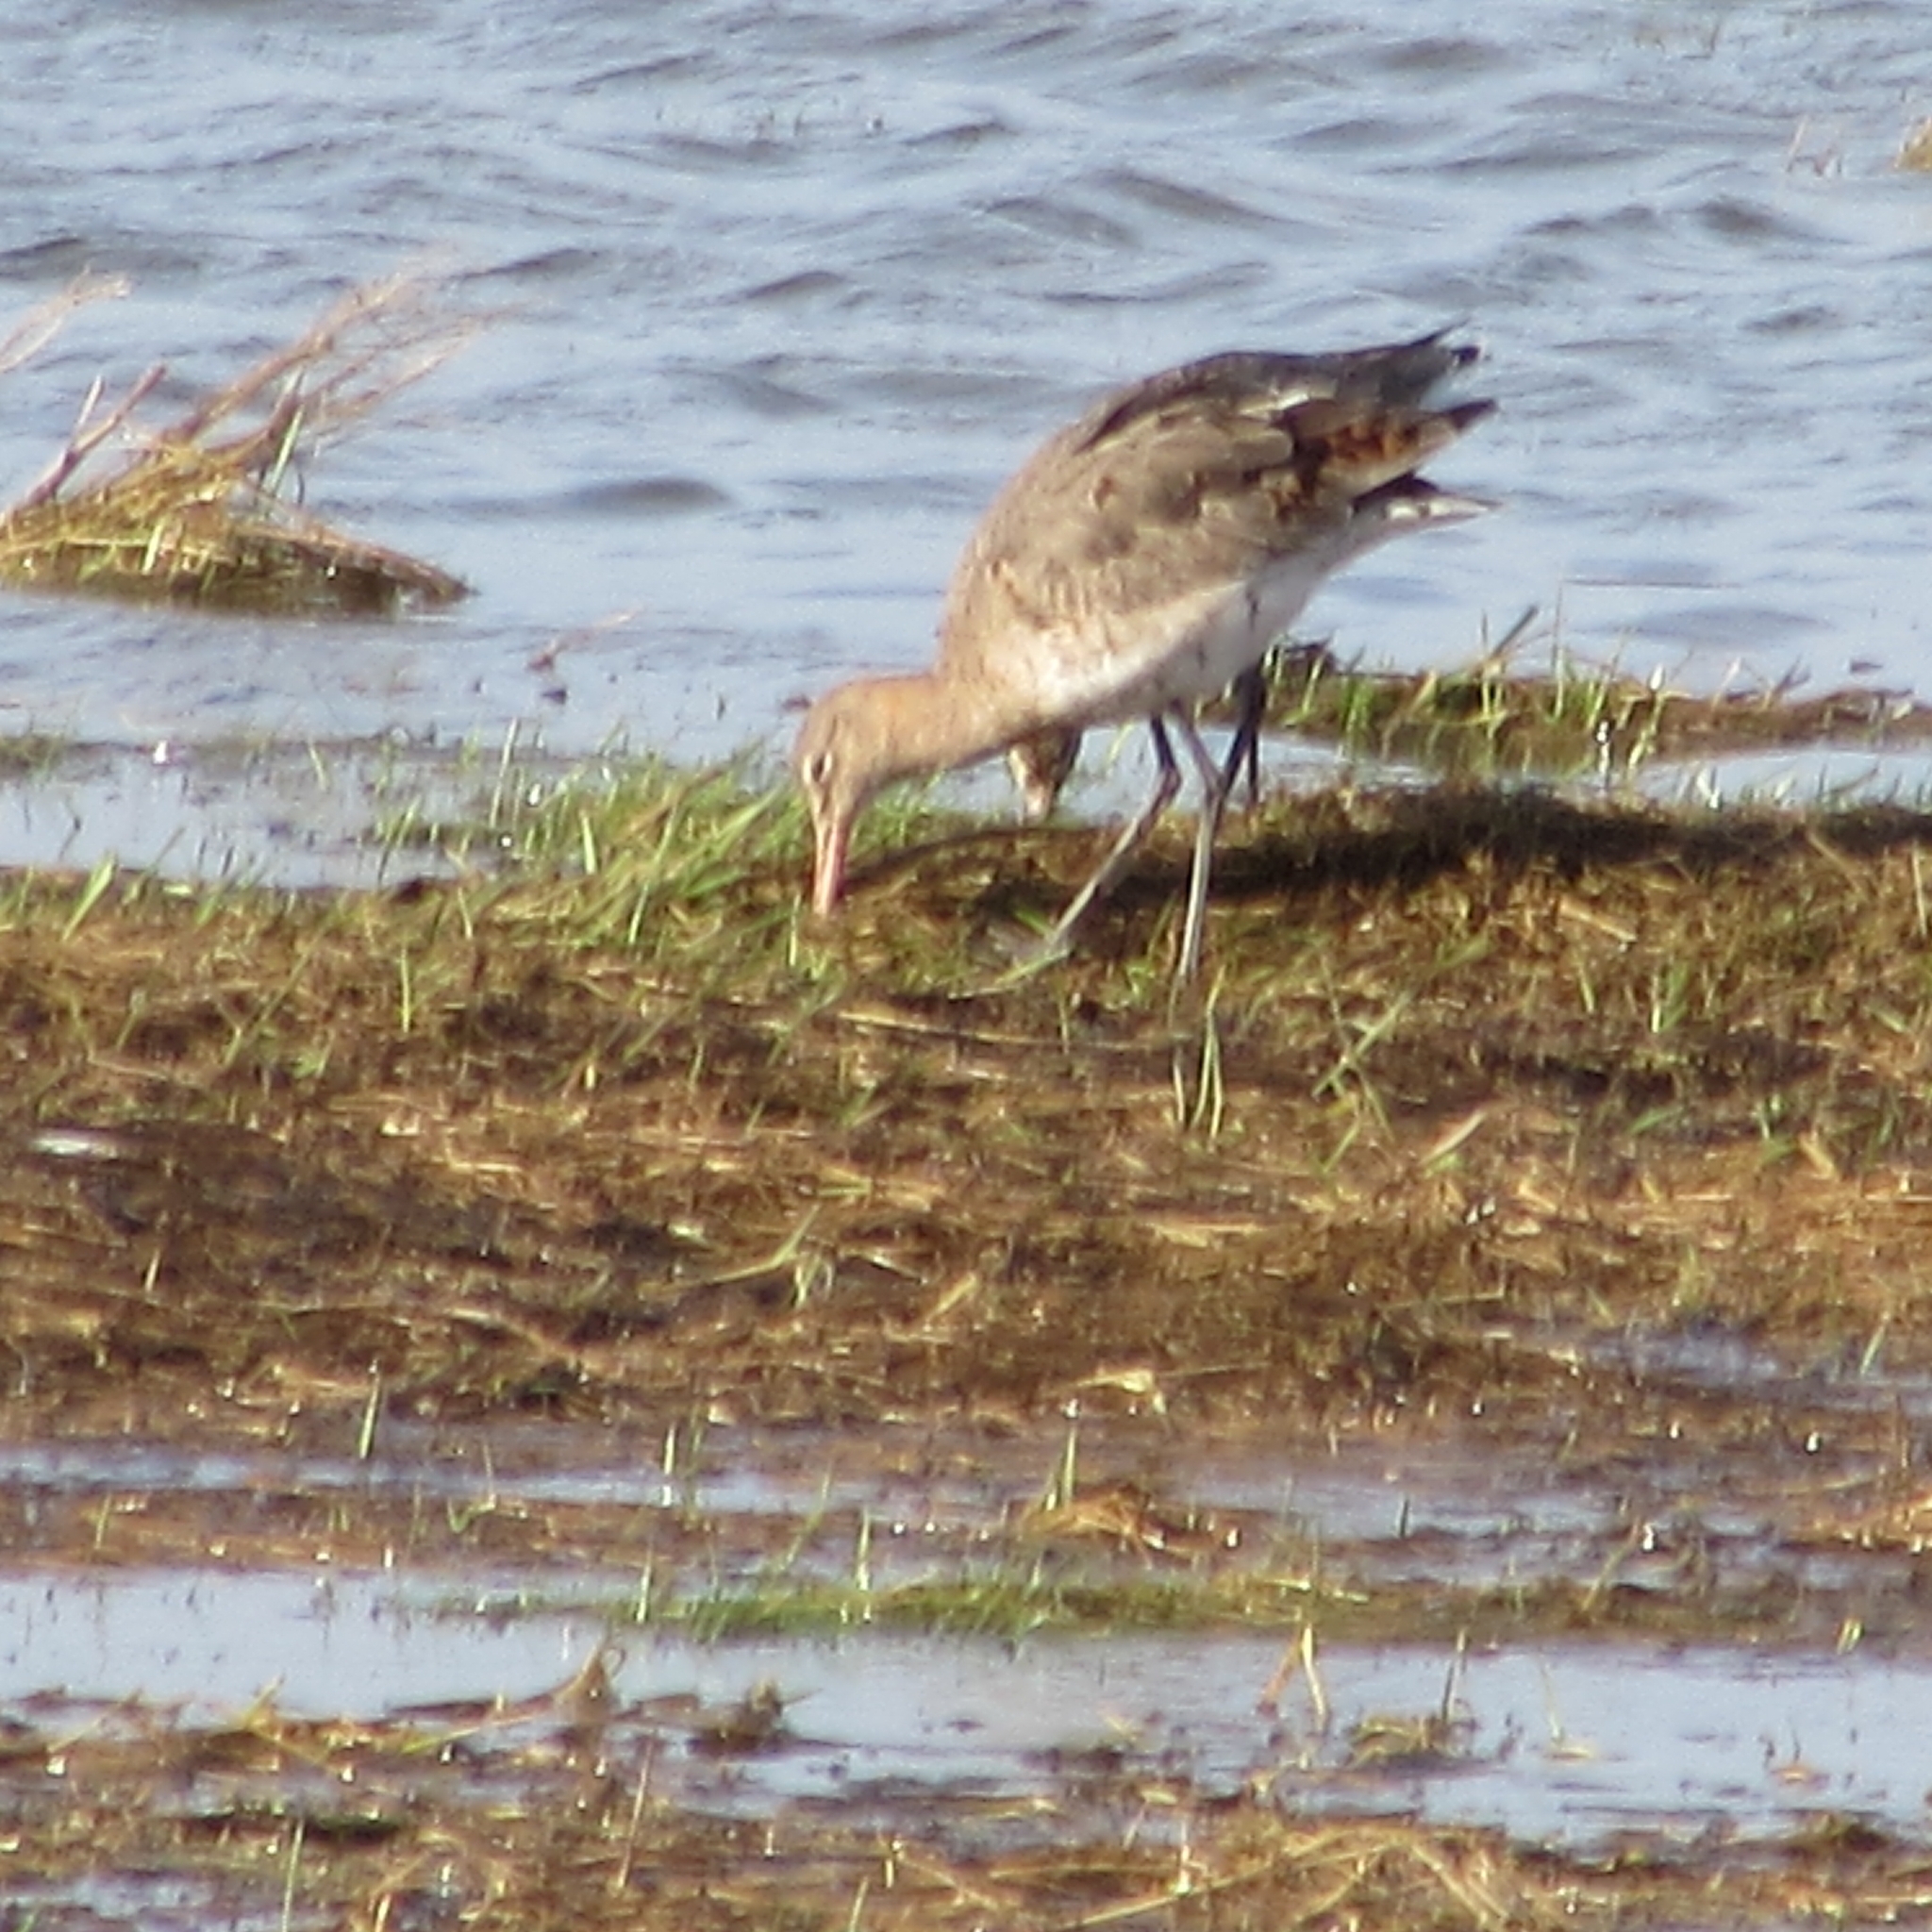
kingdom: Animalia
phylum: Chordata
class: Aves
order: Charadriiformes
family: Scolopacidae
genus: Limosa
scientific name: Limosa limosa
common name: Black-tailed godwit
